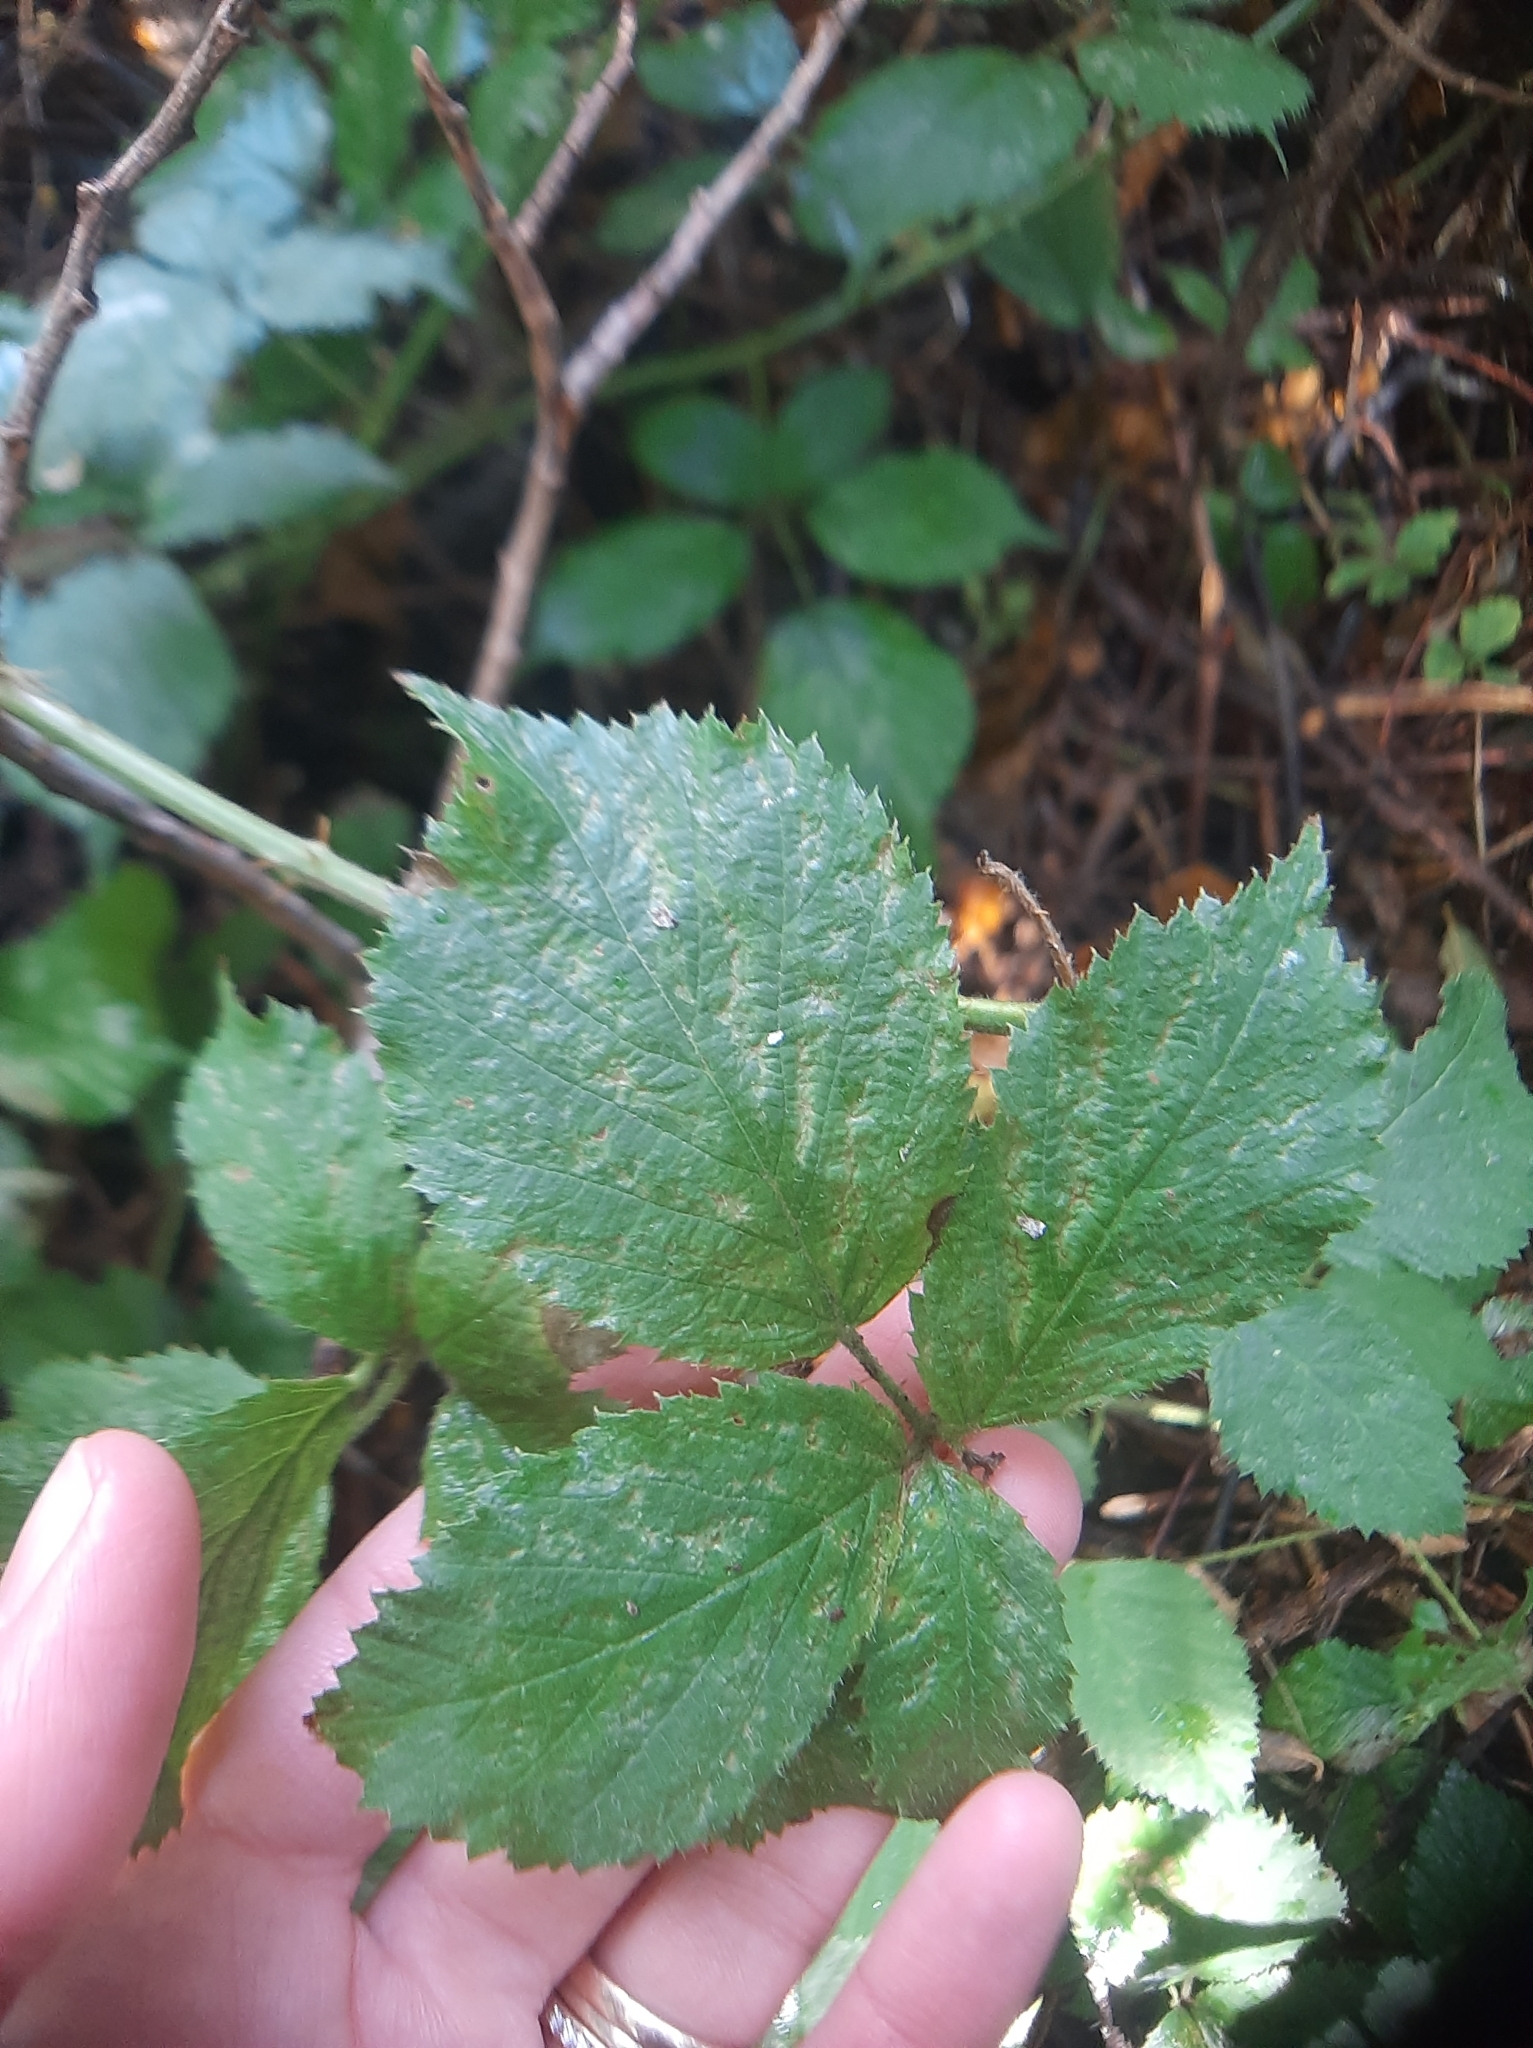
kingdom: Plantae
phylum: Tracheophyta
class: Magnoliopsida
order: Rosales
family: Rosaceae
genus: Rubus
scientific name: Rubus vestitus
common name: European blackberry
